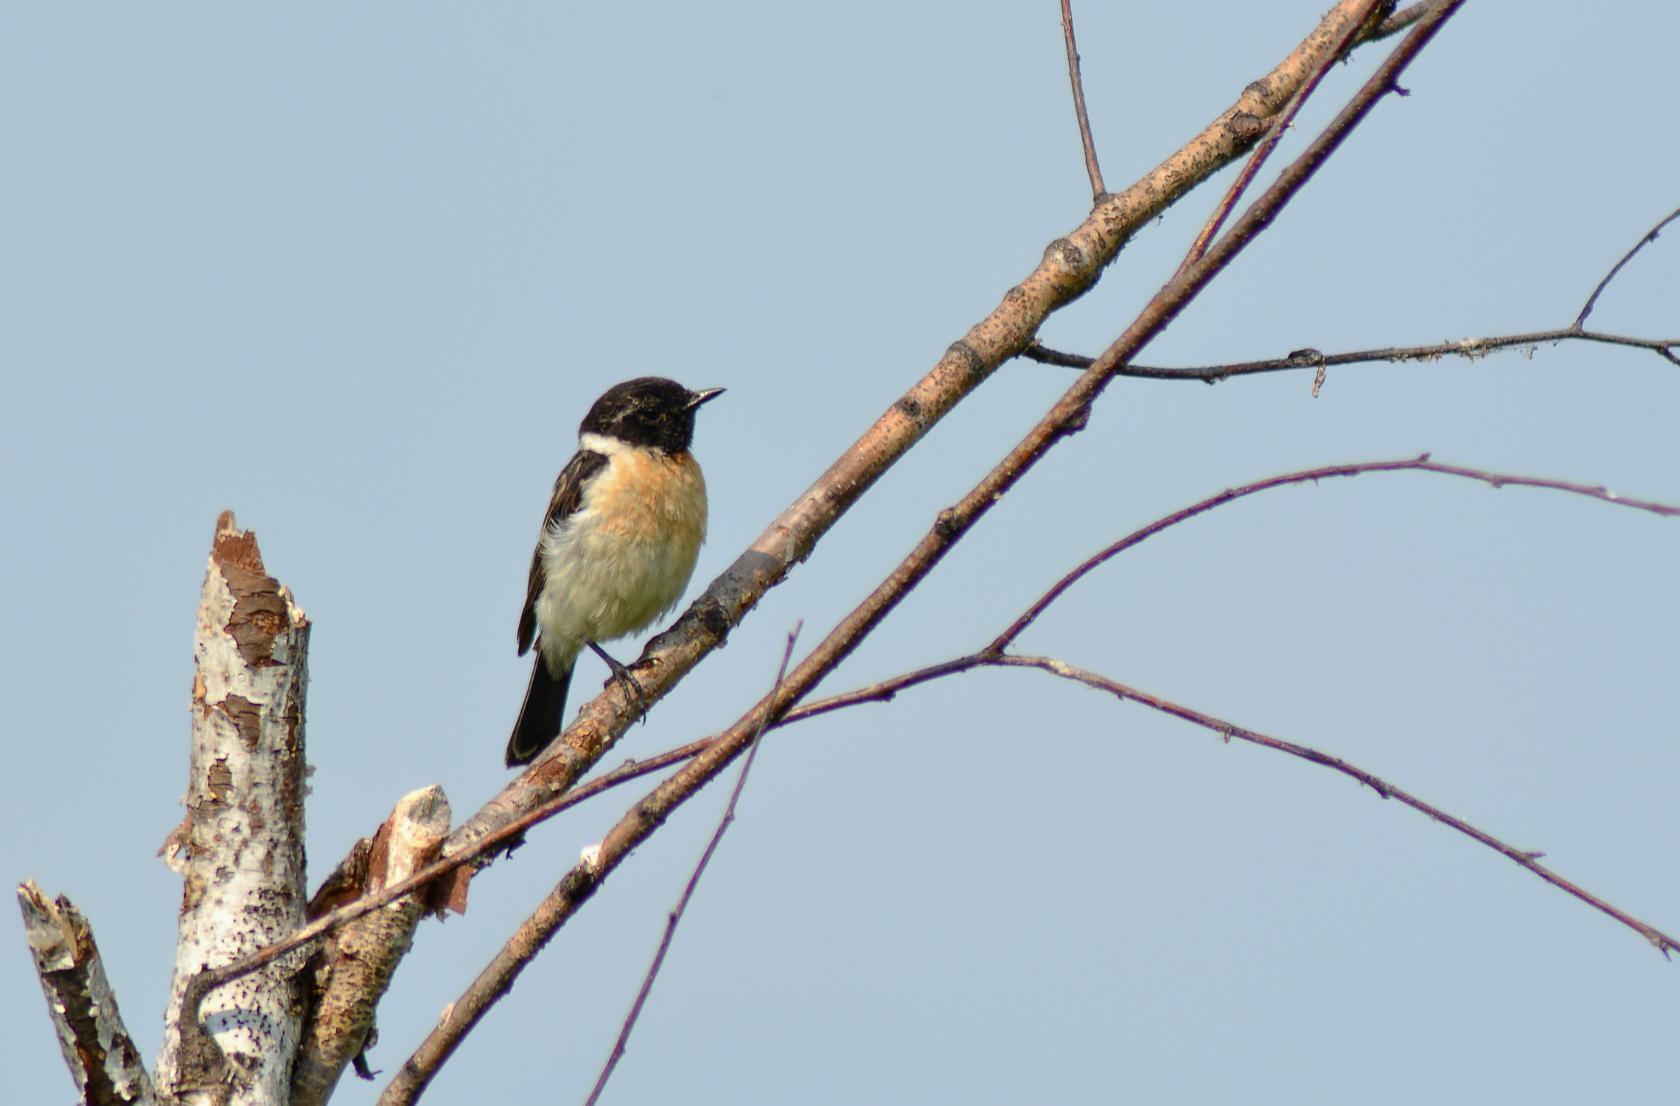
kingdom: Animalia
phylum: Chordata
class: Aves
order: Passeriformes
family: Muscicapidae
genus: Saxicola
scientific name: Saxicola maurus
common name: Siberian stonechat
